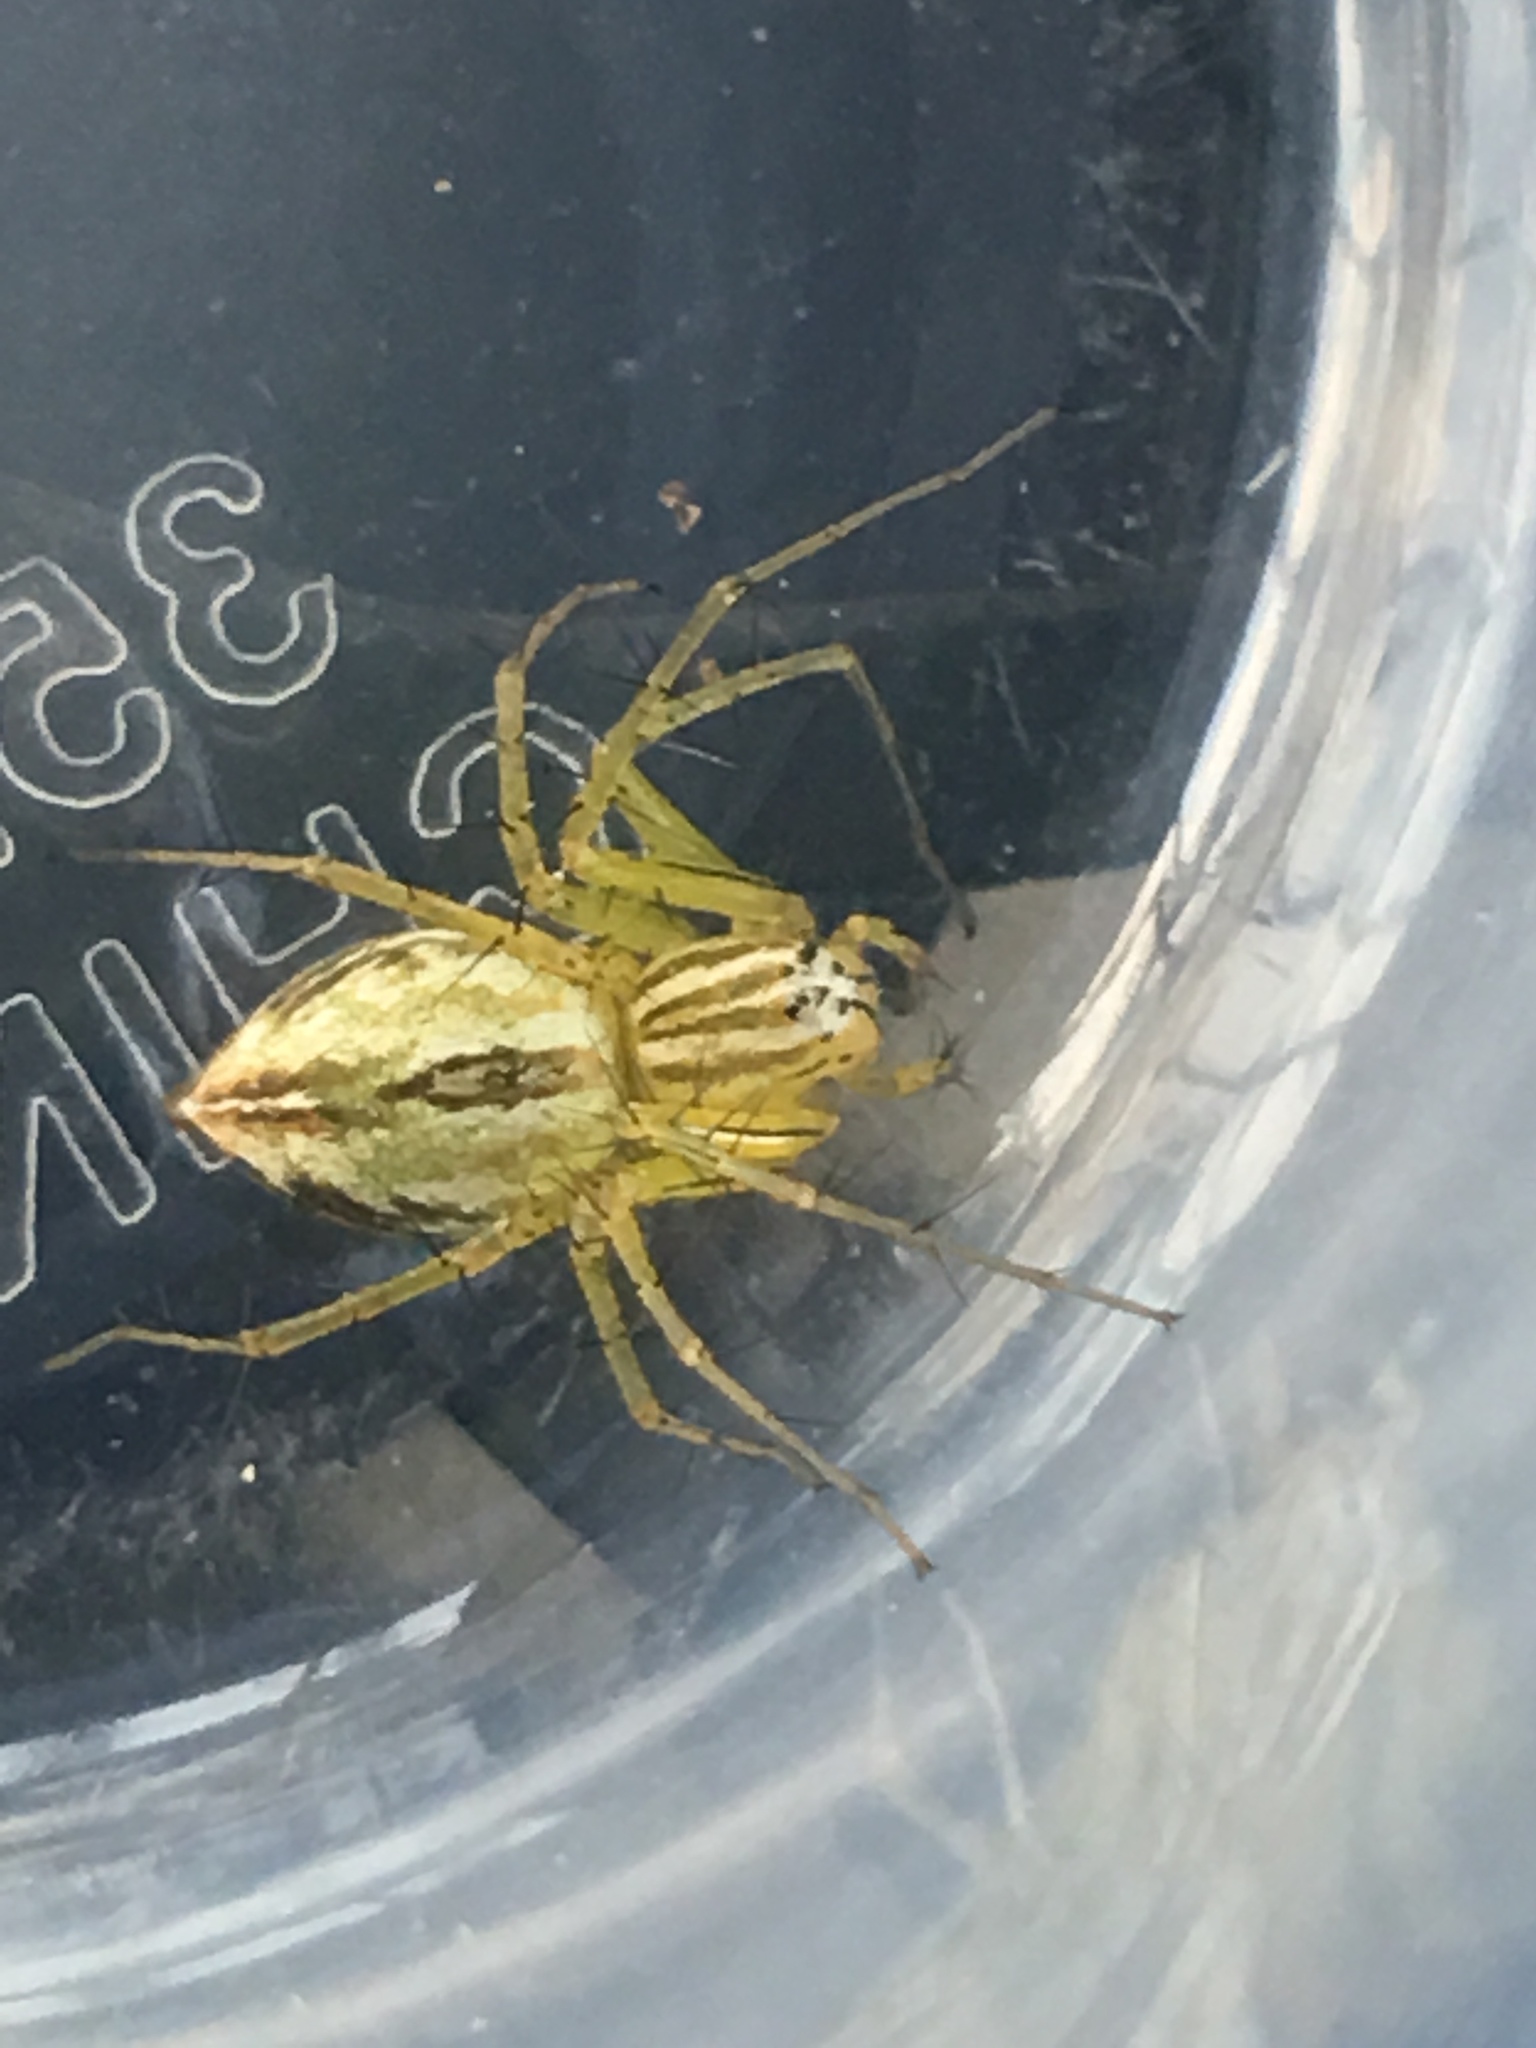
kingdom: Animalia
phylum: Arthropoda
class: Arachnida
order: Araneae
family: Oxyopidae
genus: Oxyopes
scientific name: Oxyopes salticus
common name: Lynx spiders
